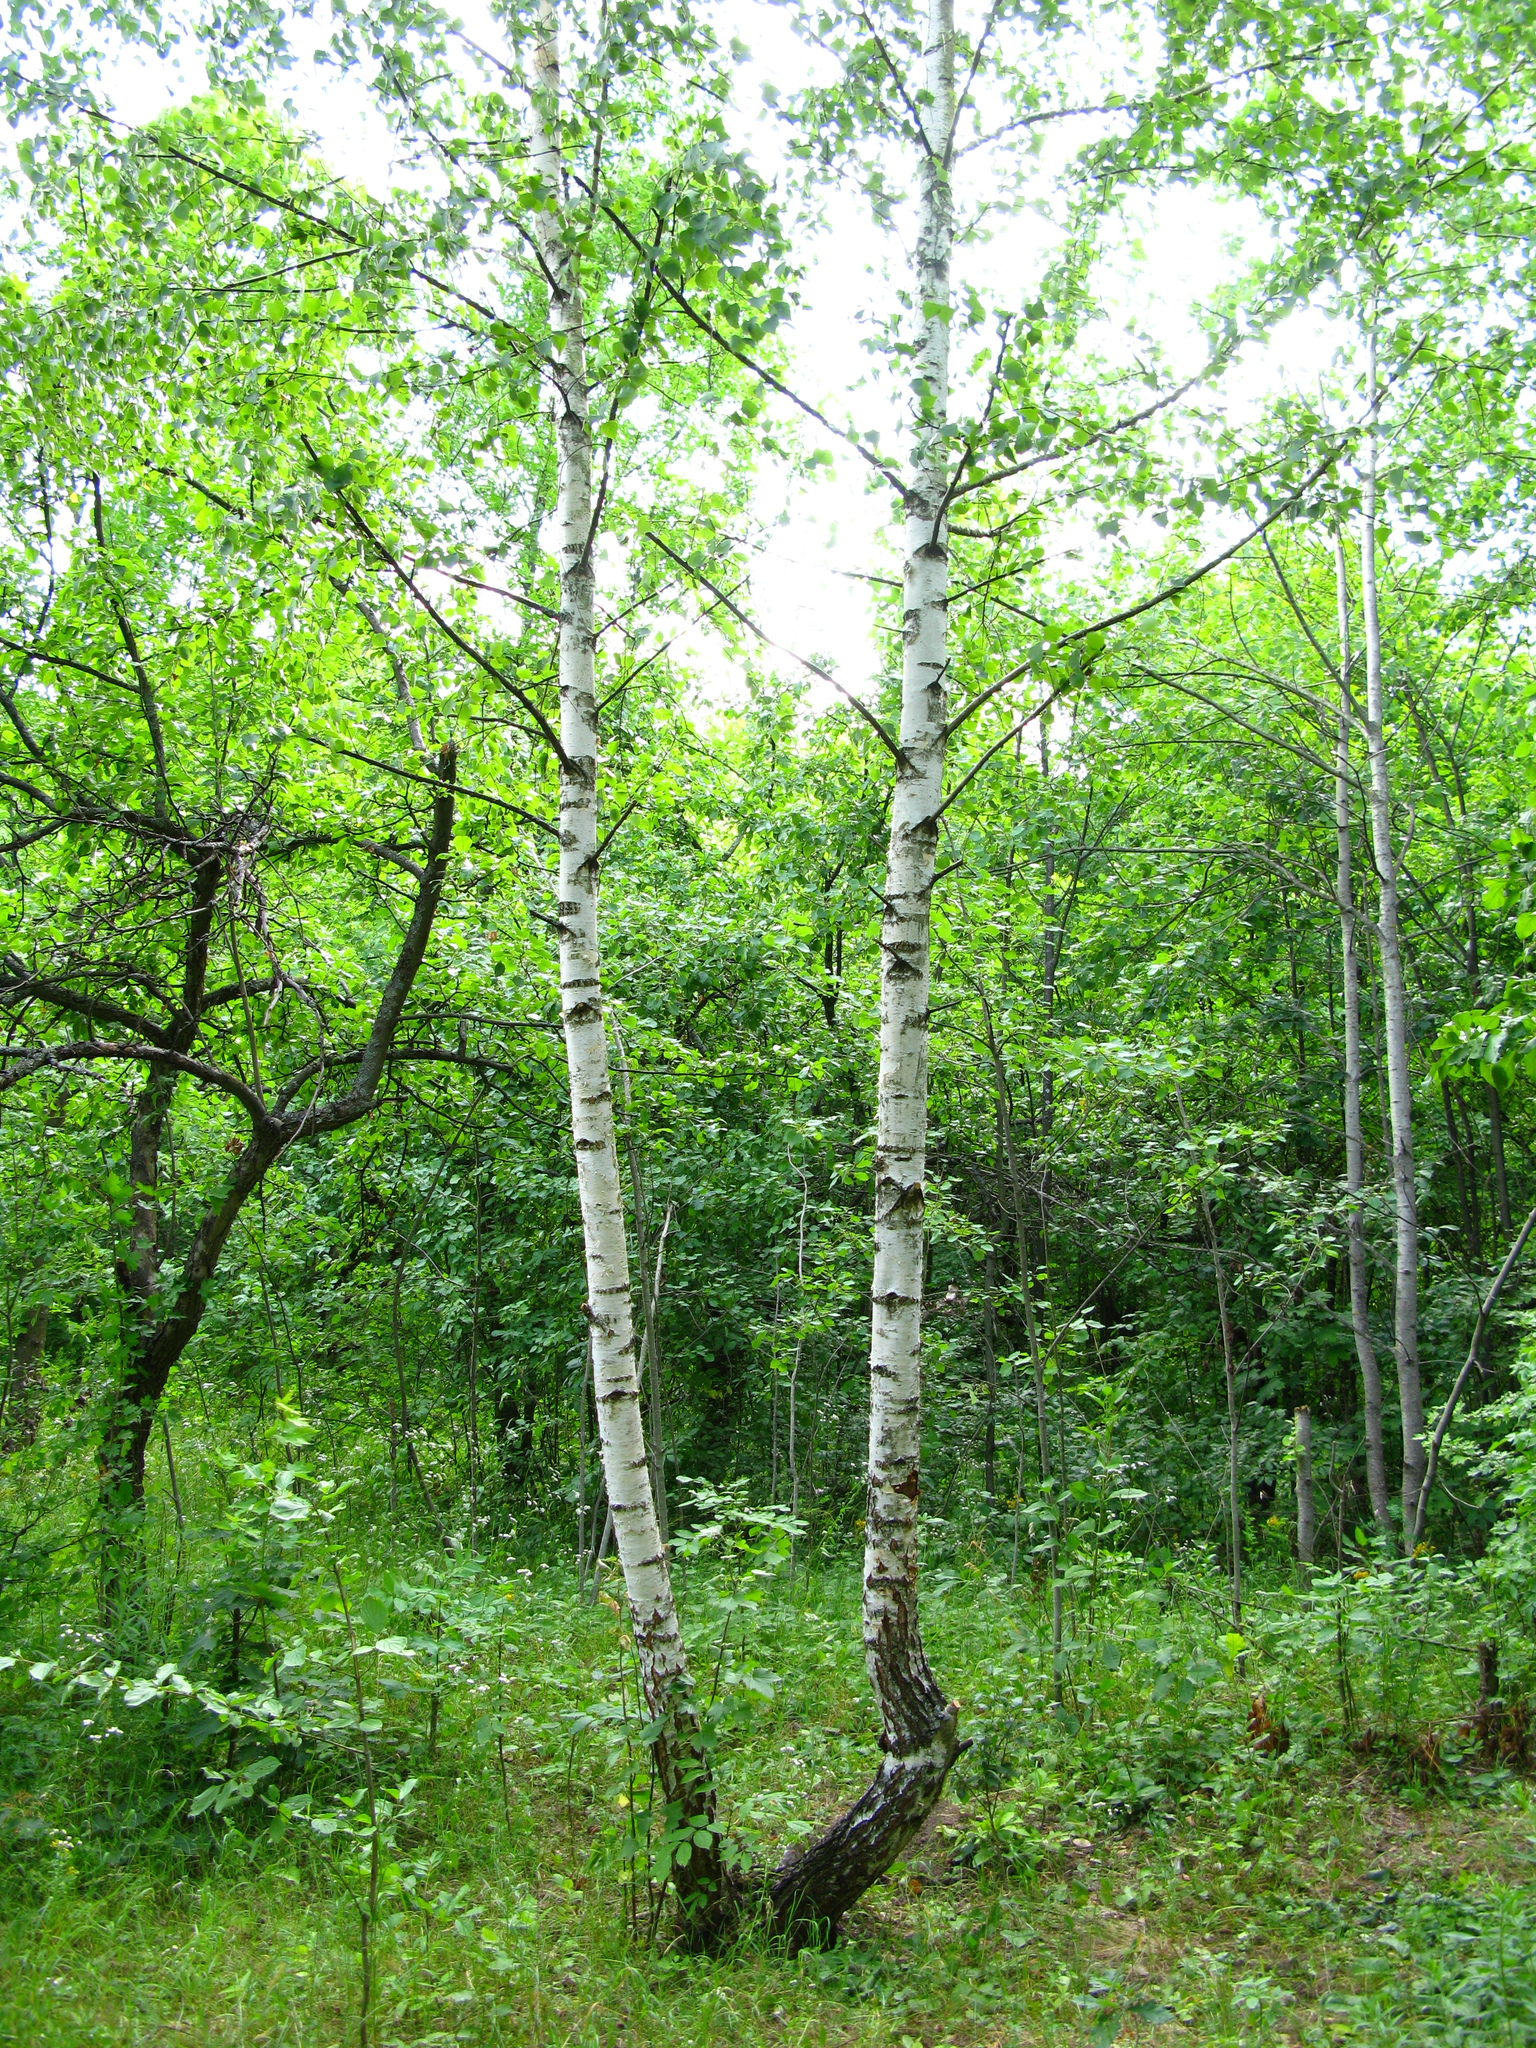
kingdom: Plantae
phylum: Tracheophyta
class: Magnoliopsida
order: Fagales
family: Betulaceae
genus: Betula
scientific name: Betula pendula
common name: Silver birch
